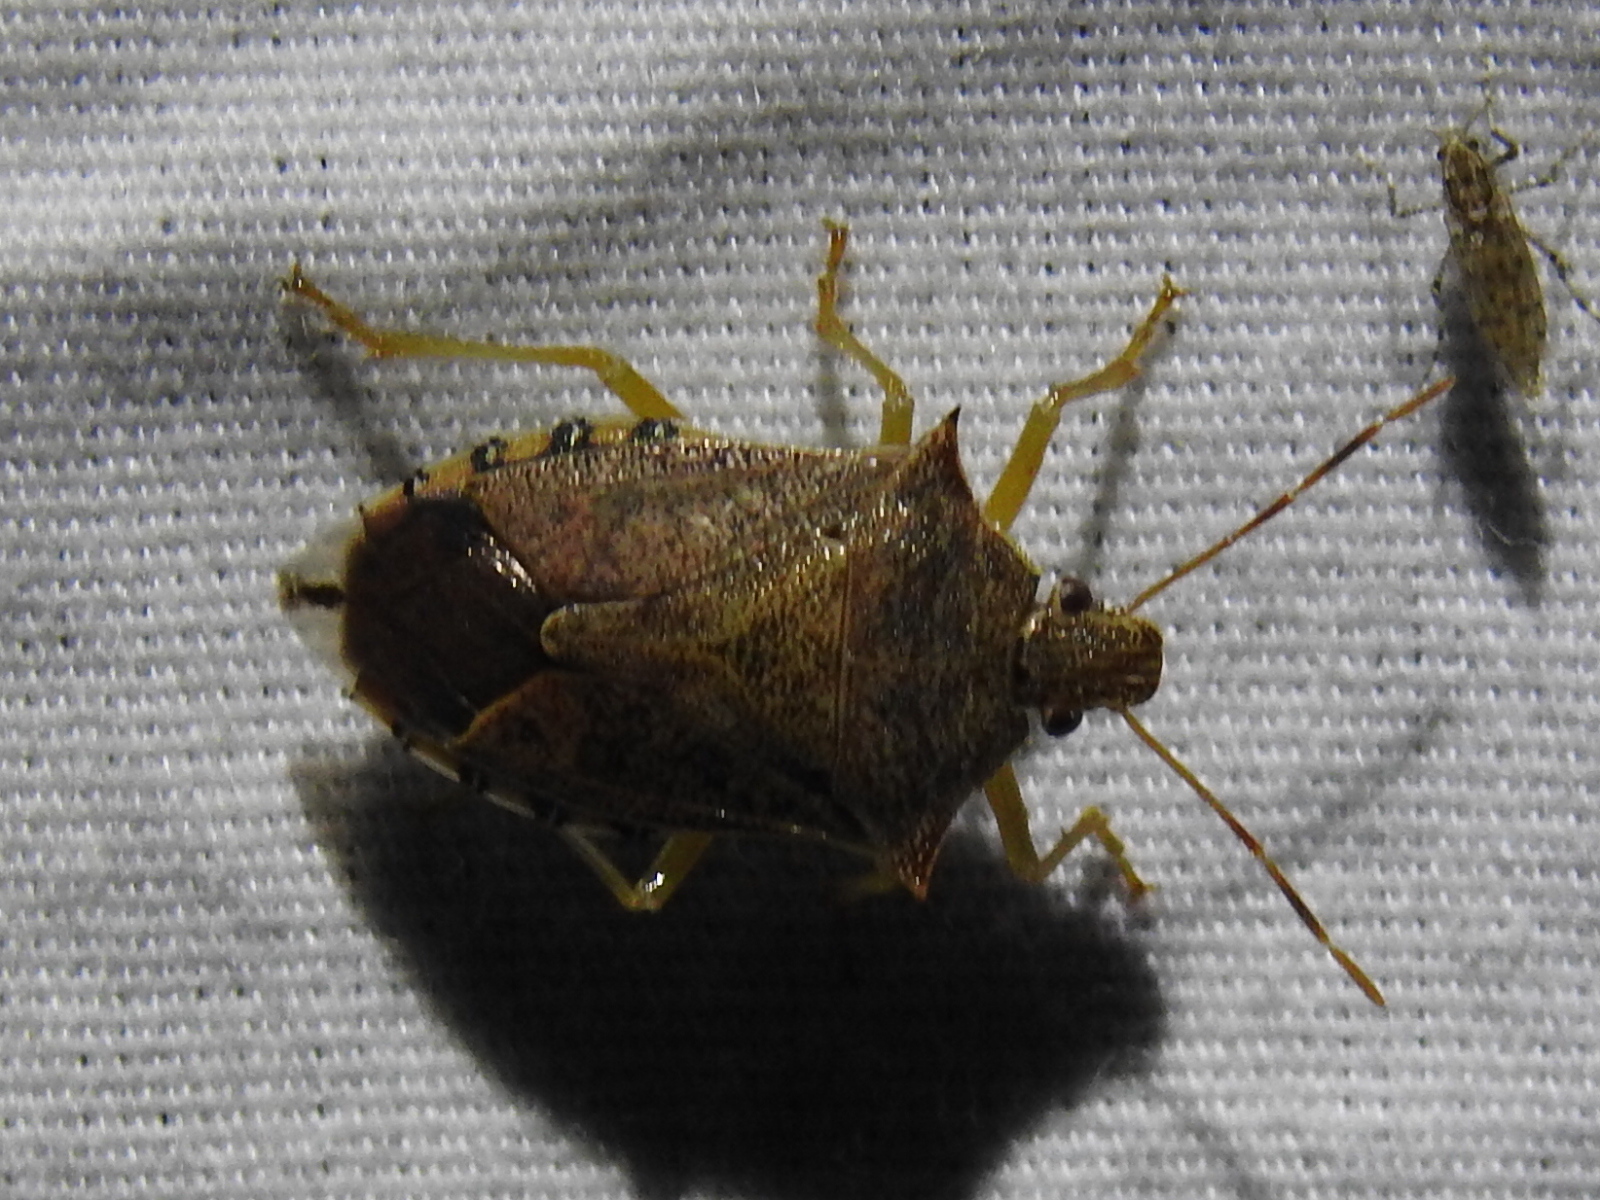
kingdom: Animalia
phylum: Arthropoda
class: Insecta
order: Hemiptera
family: Pentatomidae
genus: Podisus
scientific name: Podisus maculiventris
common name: Spined soldier bug
